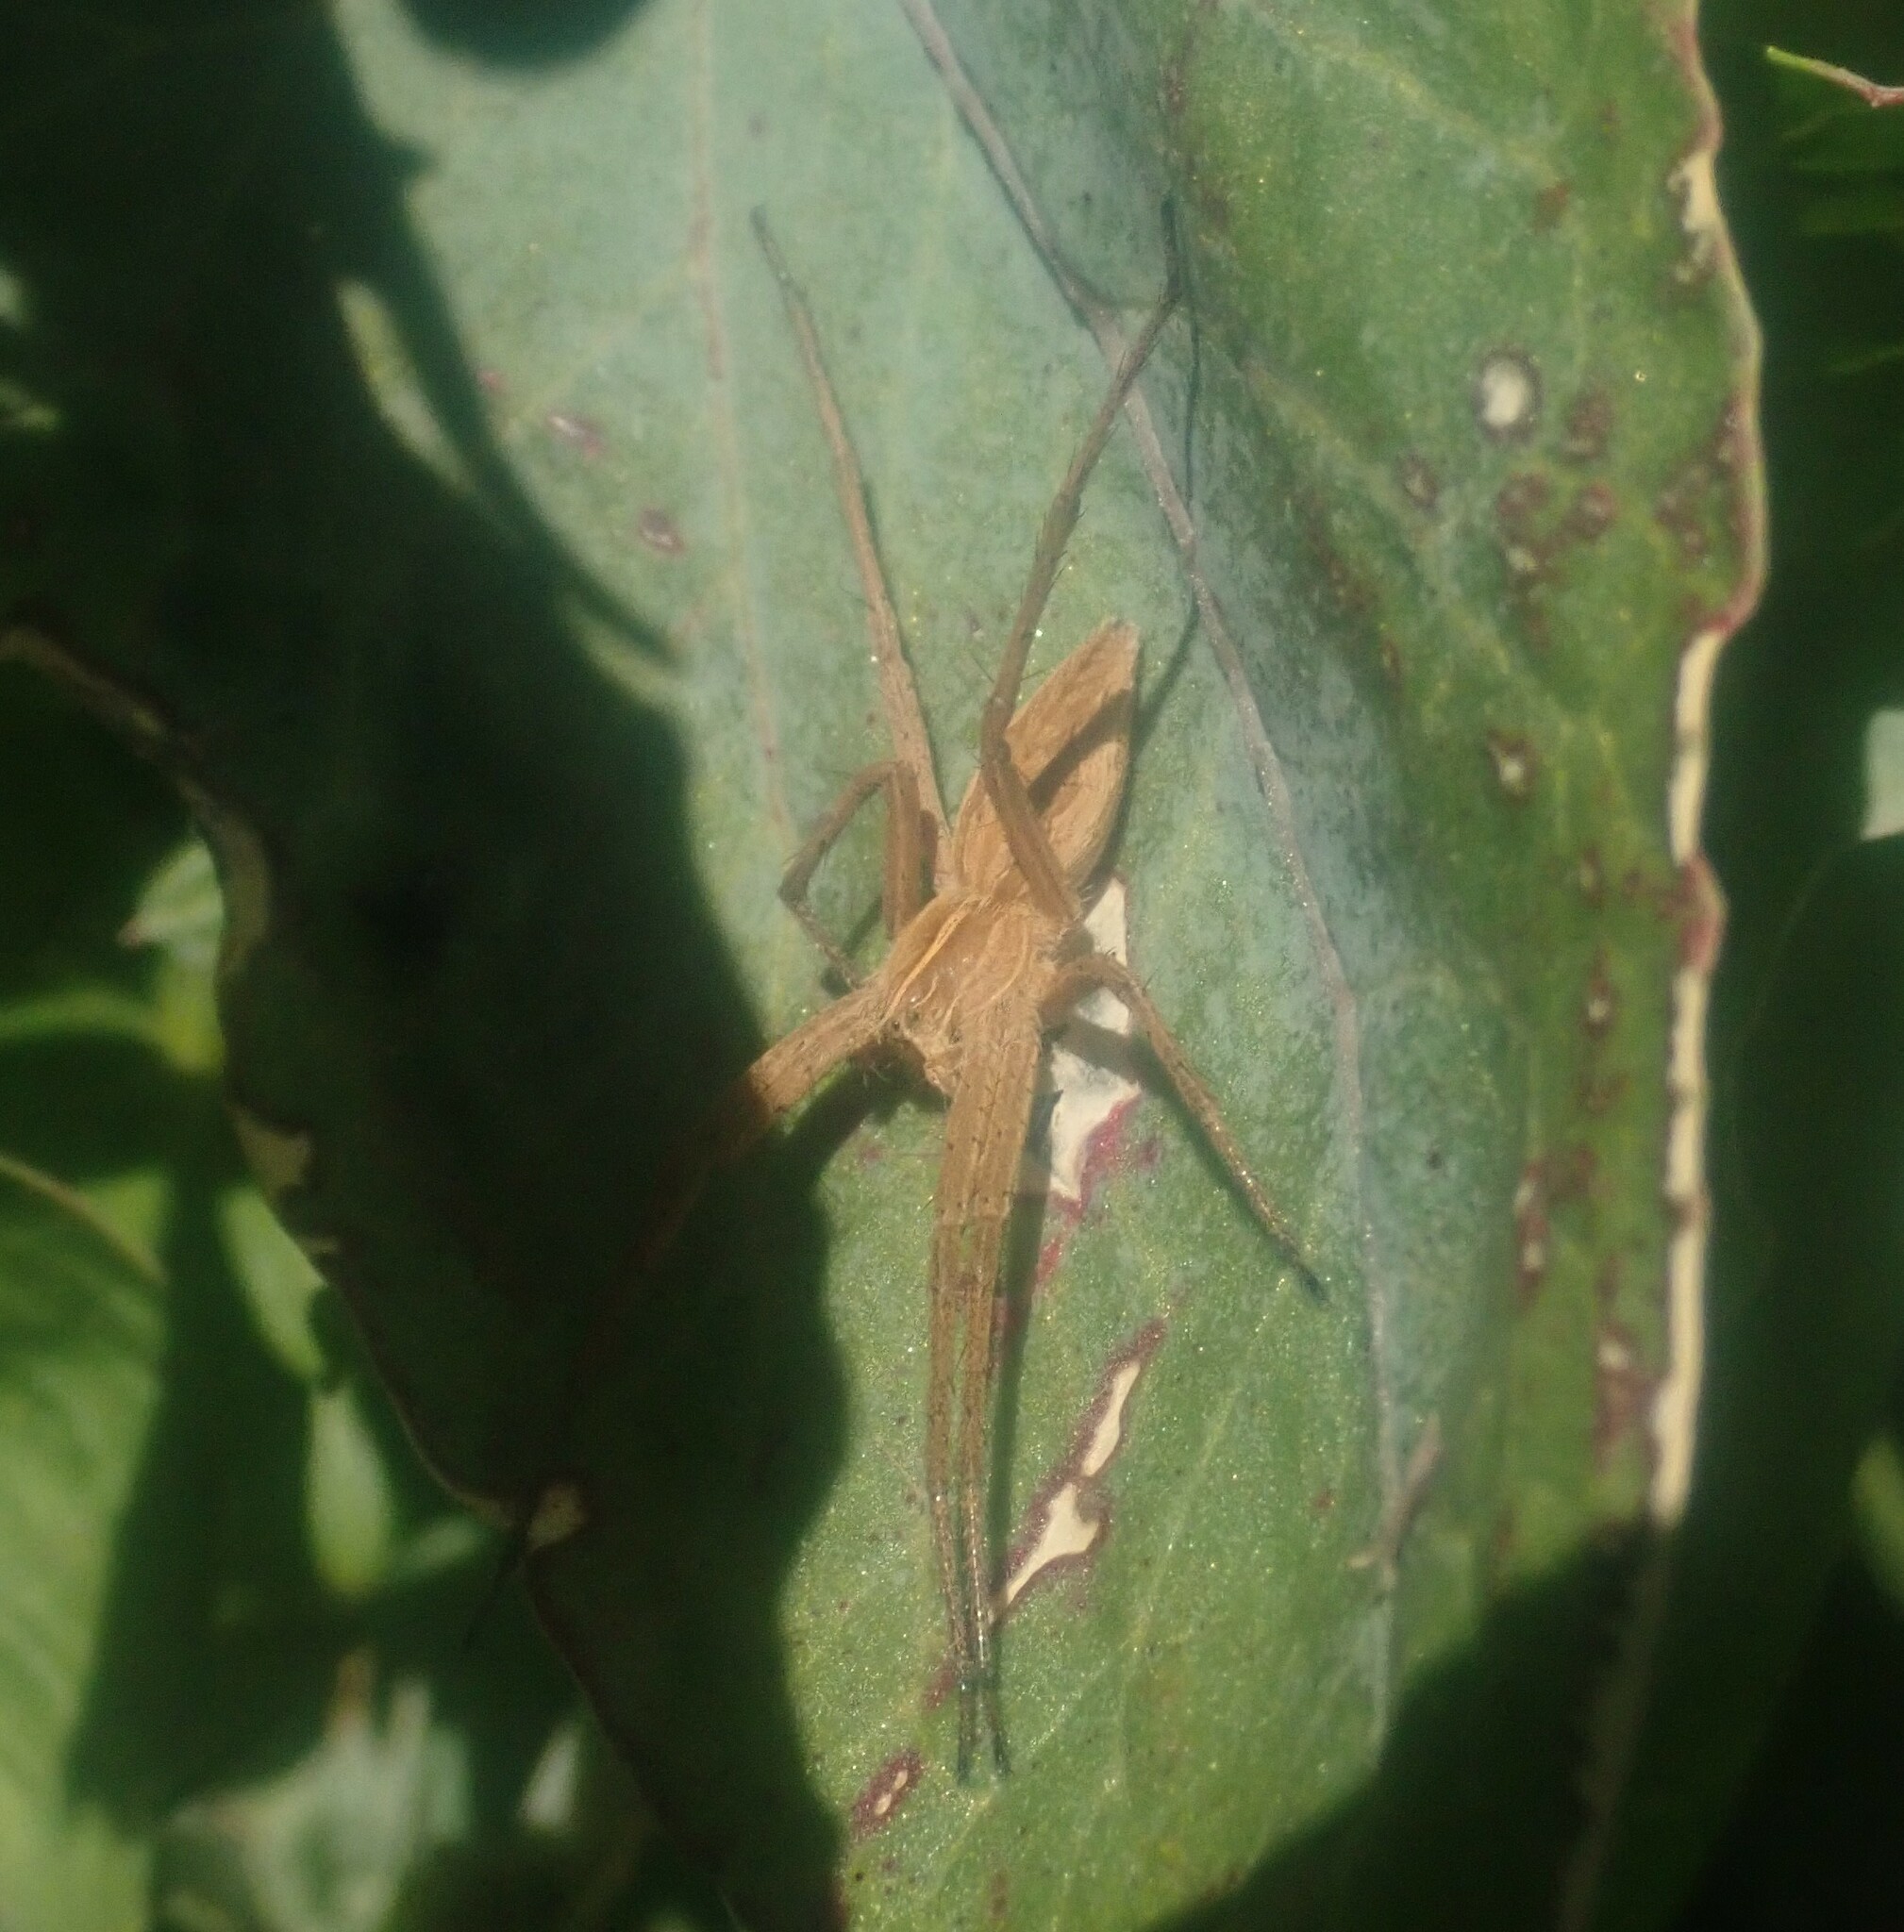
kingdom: Animalia
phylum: Arthropoda
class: Arachnida
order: Araneae
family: Pisauridae
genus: Pisaura
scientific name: Pisaura mirabilis
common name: Tent spider
